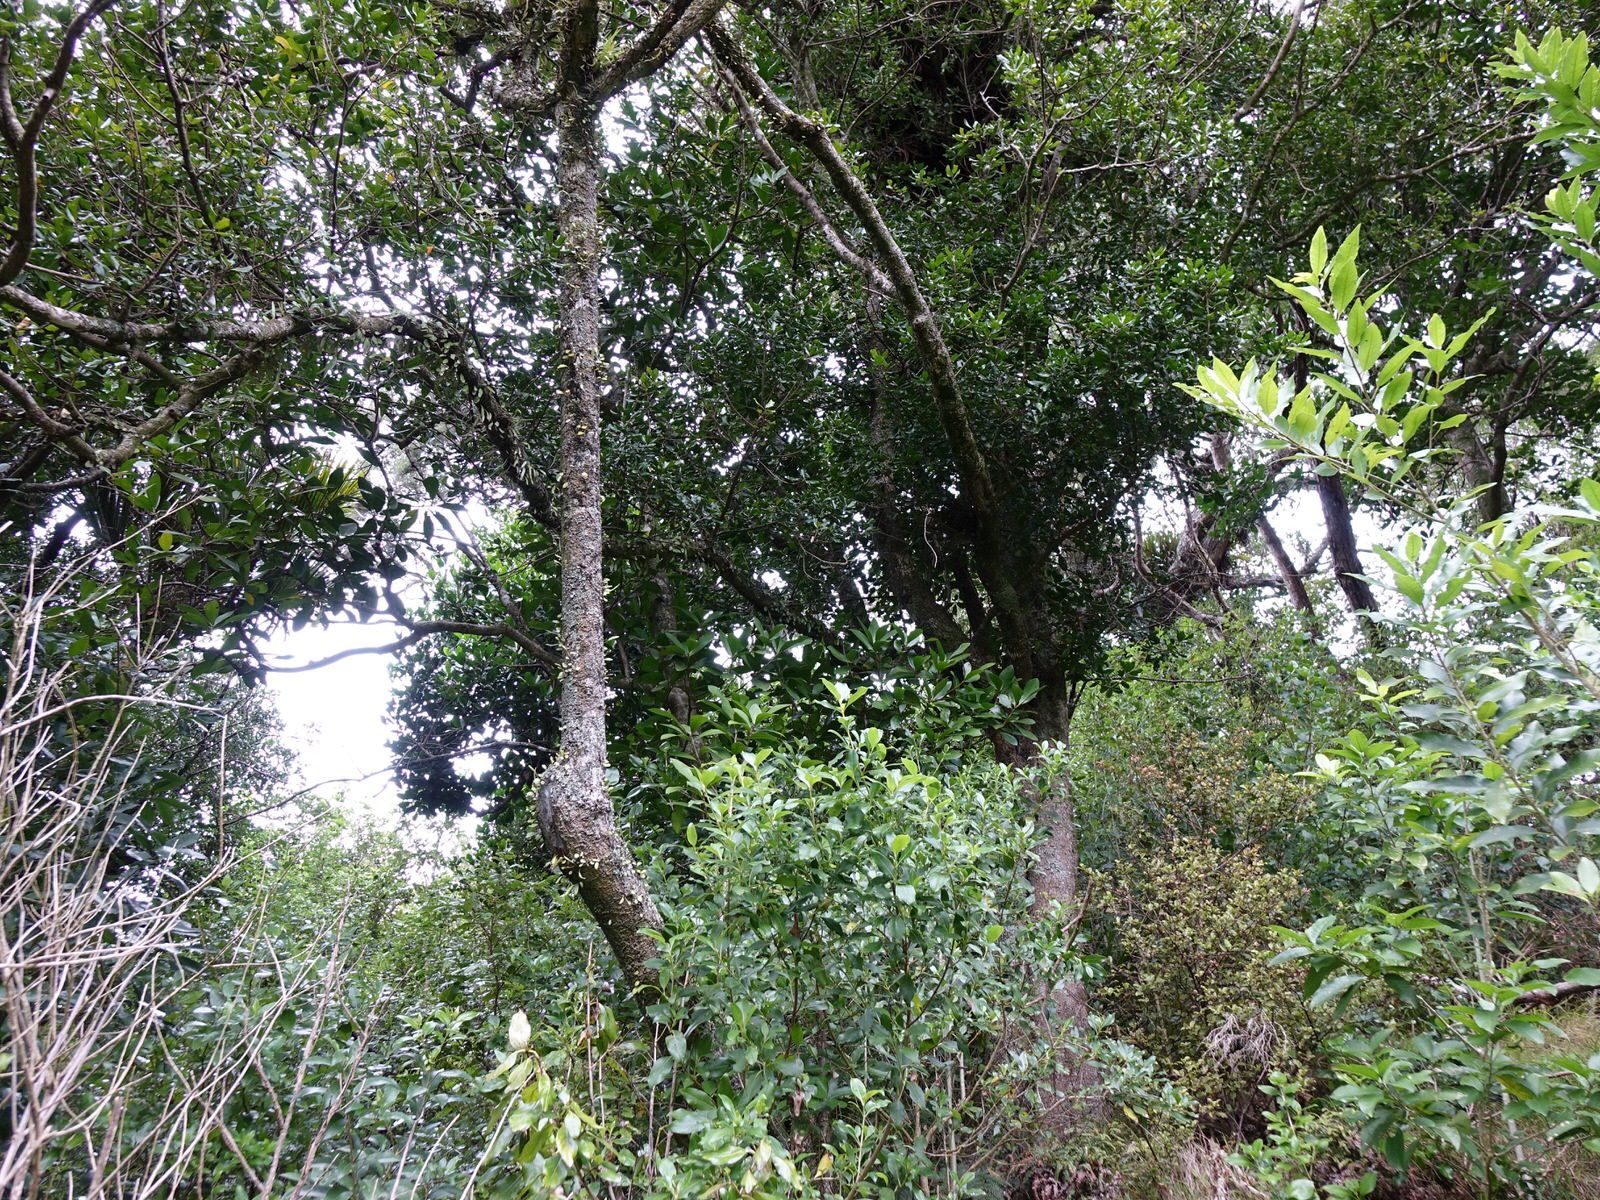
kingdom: Plantae
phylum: Tracheophyta
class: Magnoliopsida
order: Ericales
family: Sapotaceae
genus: Planchonella
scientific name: Planchonella costata
